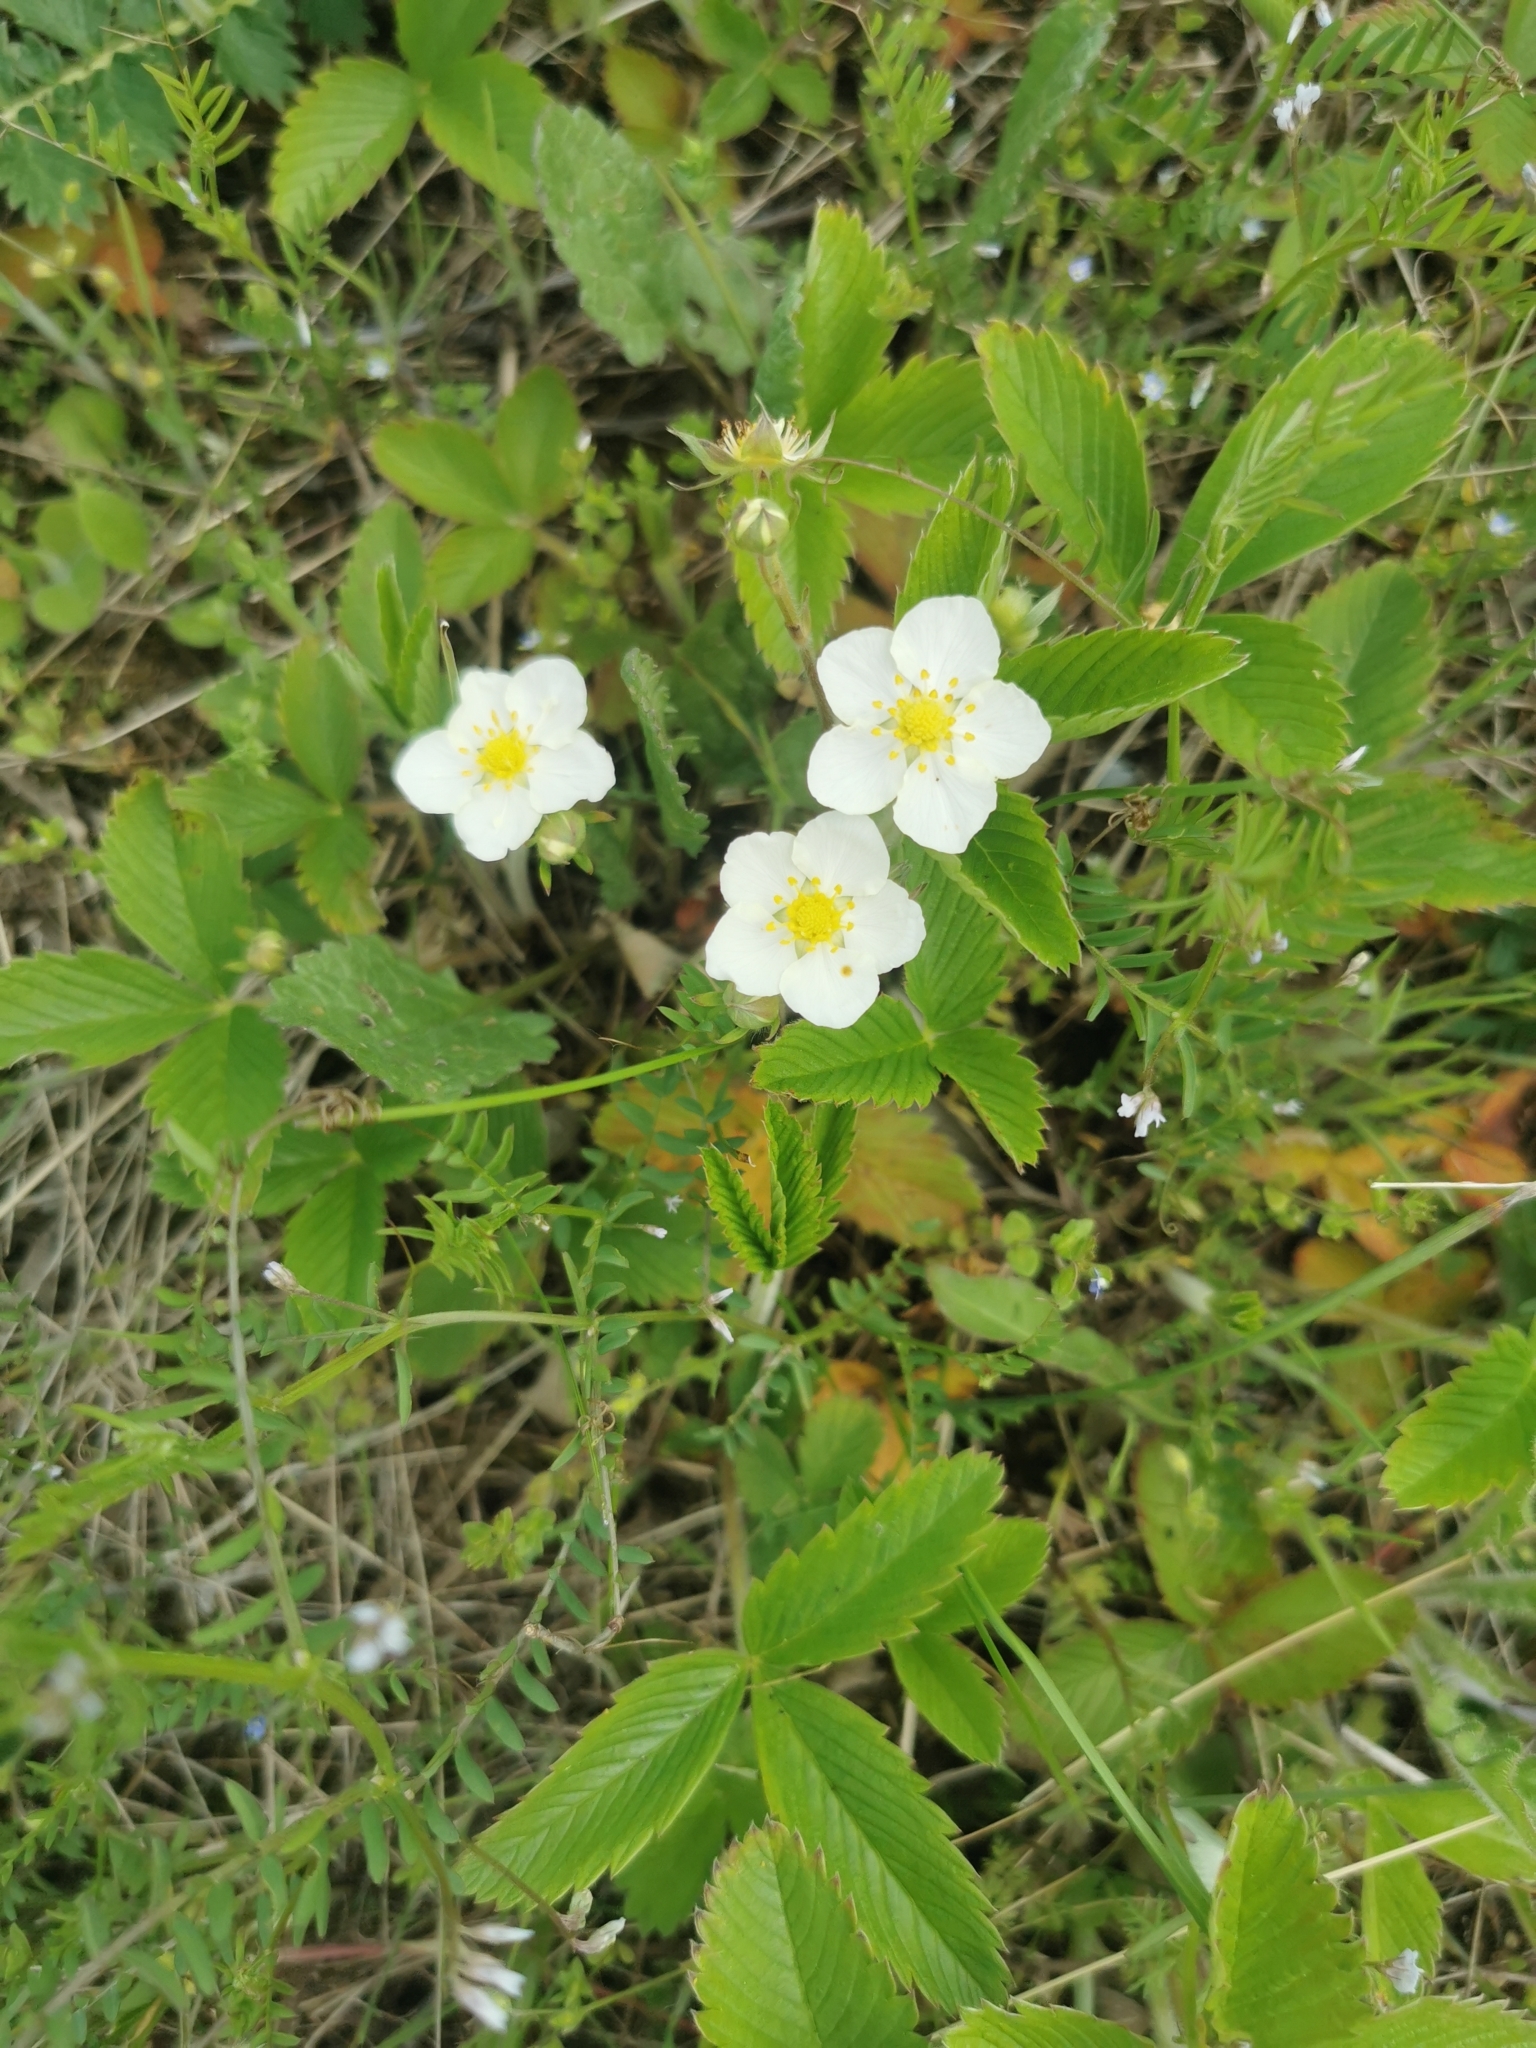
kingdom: Plantae
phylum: Tracheophyta
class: Magnoliopsida
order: Rosales
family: Rosaceae
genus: Fragaria
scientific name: Fragaria viridis
